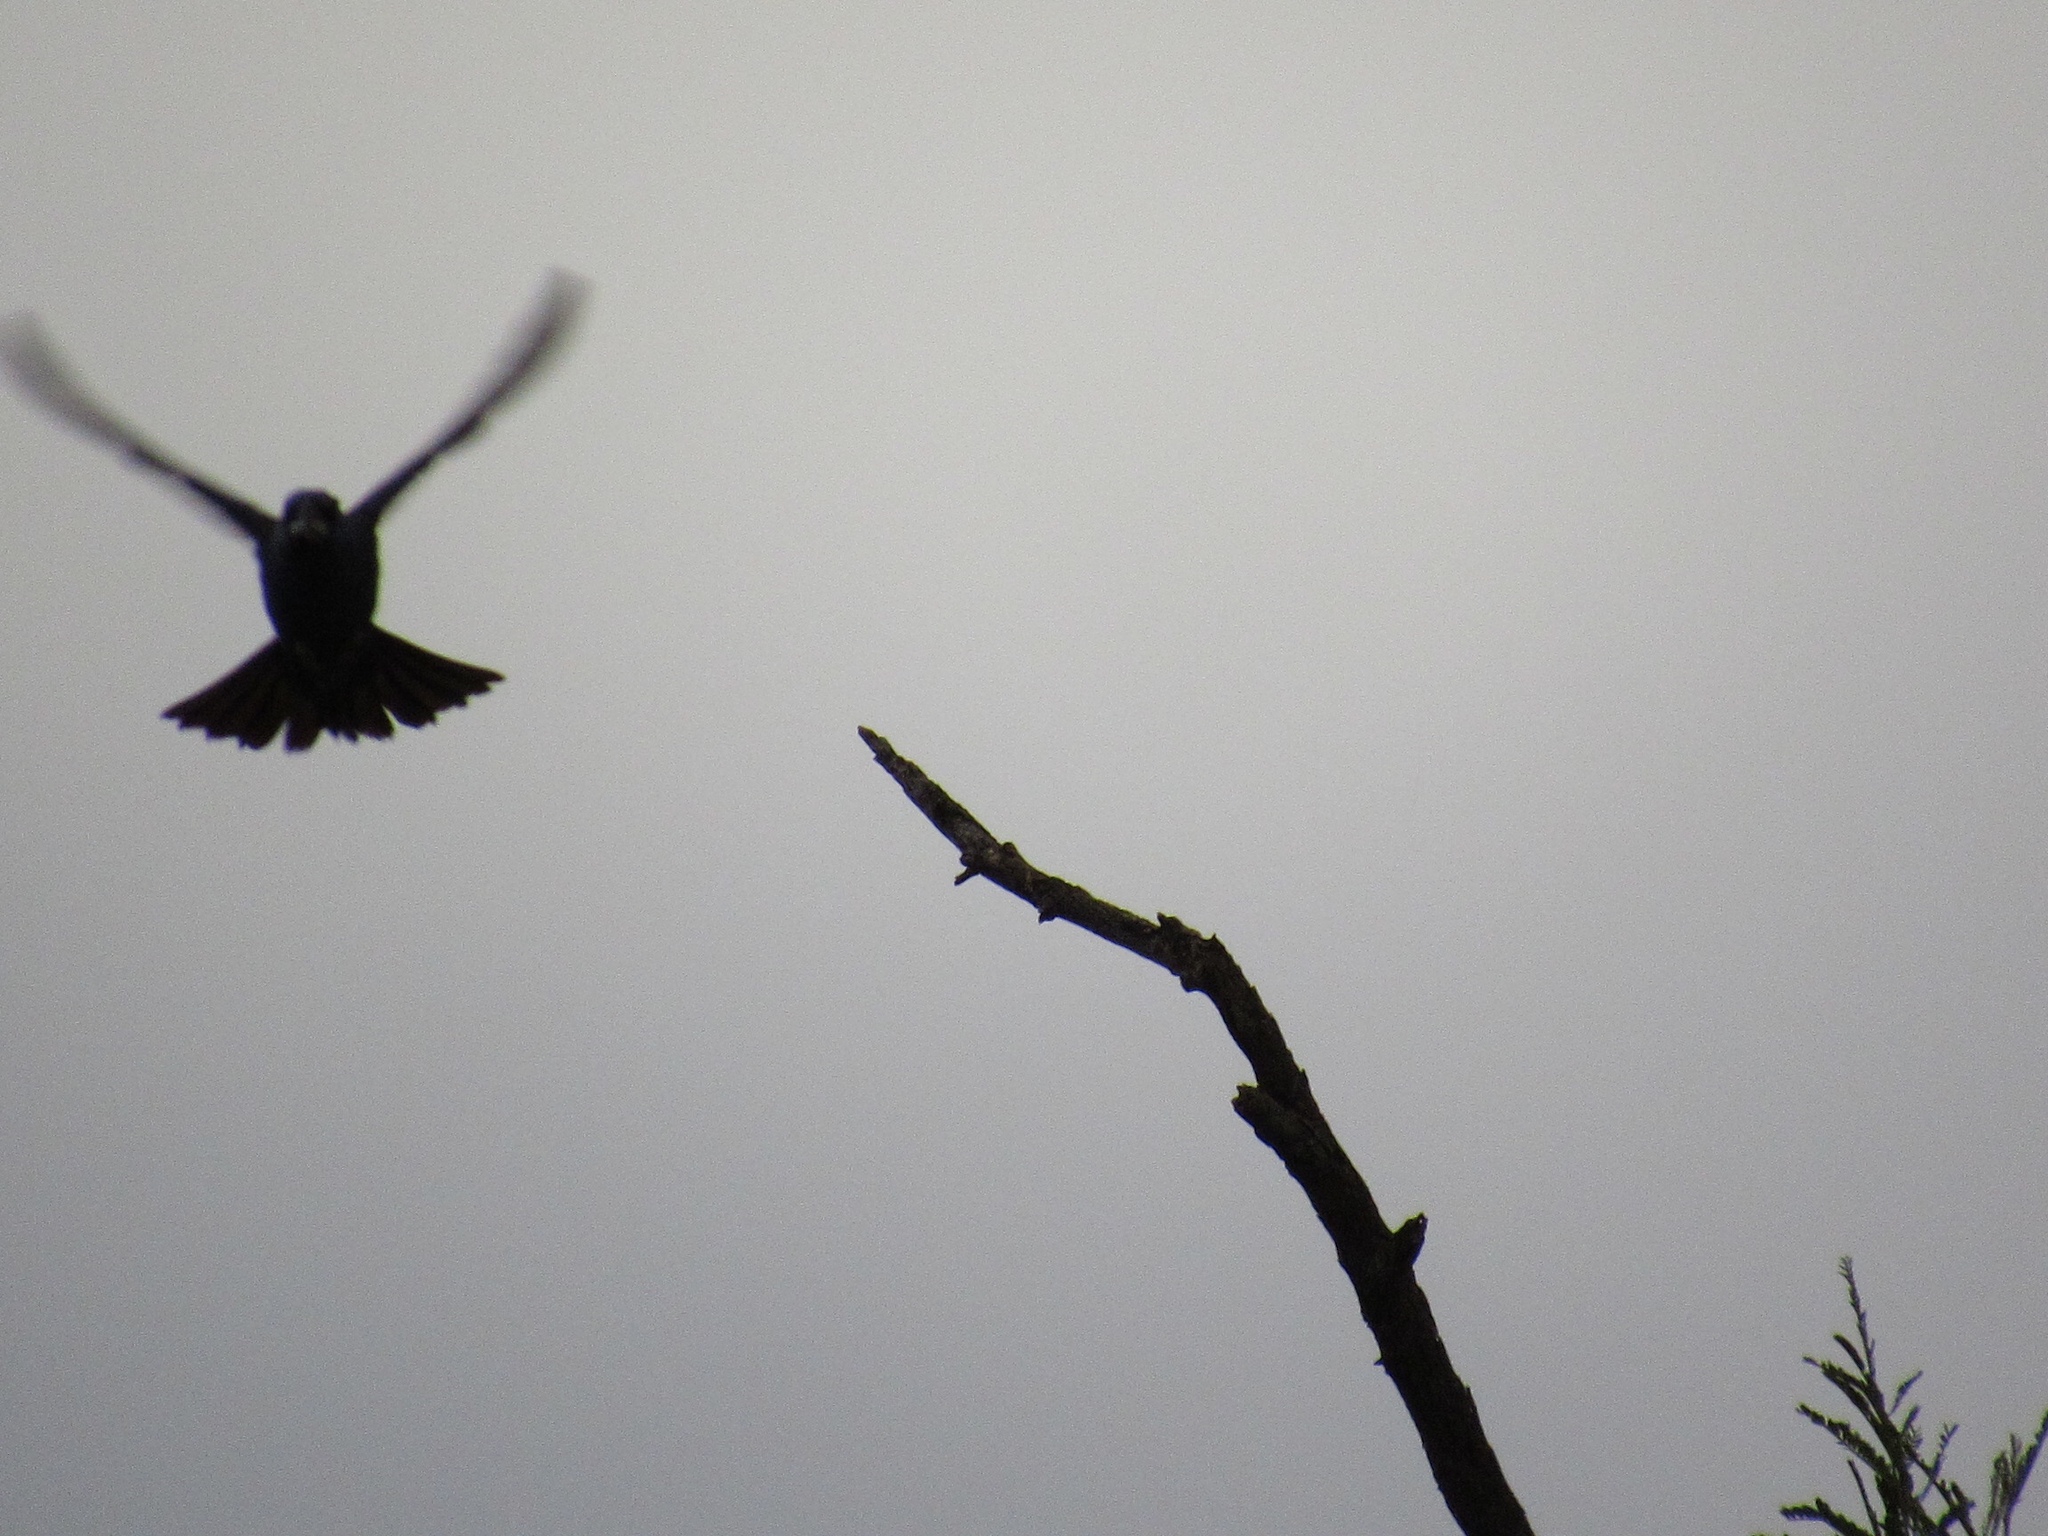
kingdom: Animalia
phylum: Chordata
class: Aves
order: Passeriformes
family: Cardinalidae
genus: Passerina
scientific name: Passerina caerulea
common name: Blue grosbeak
